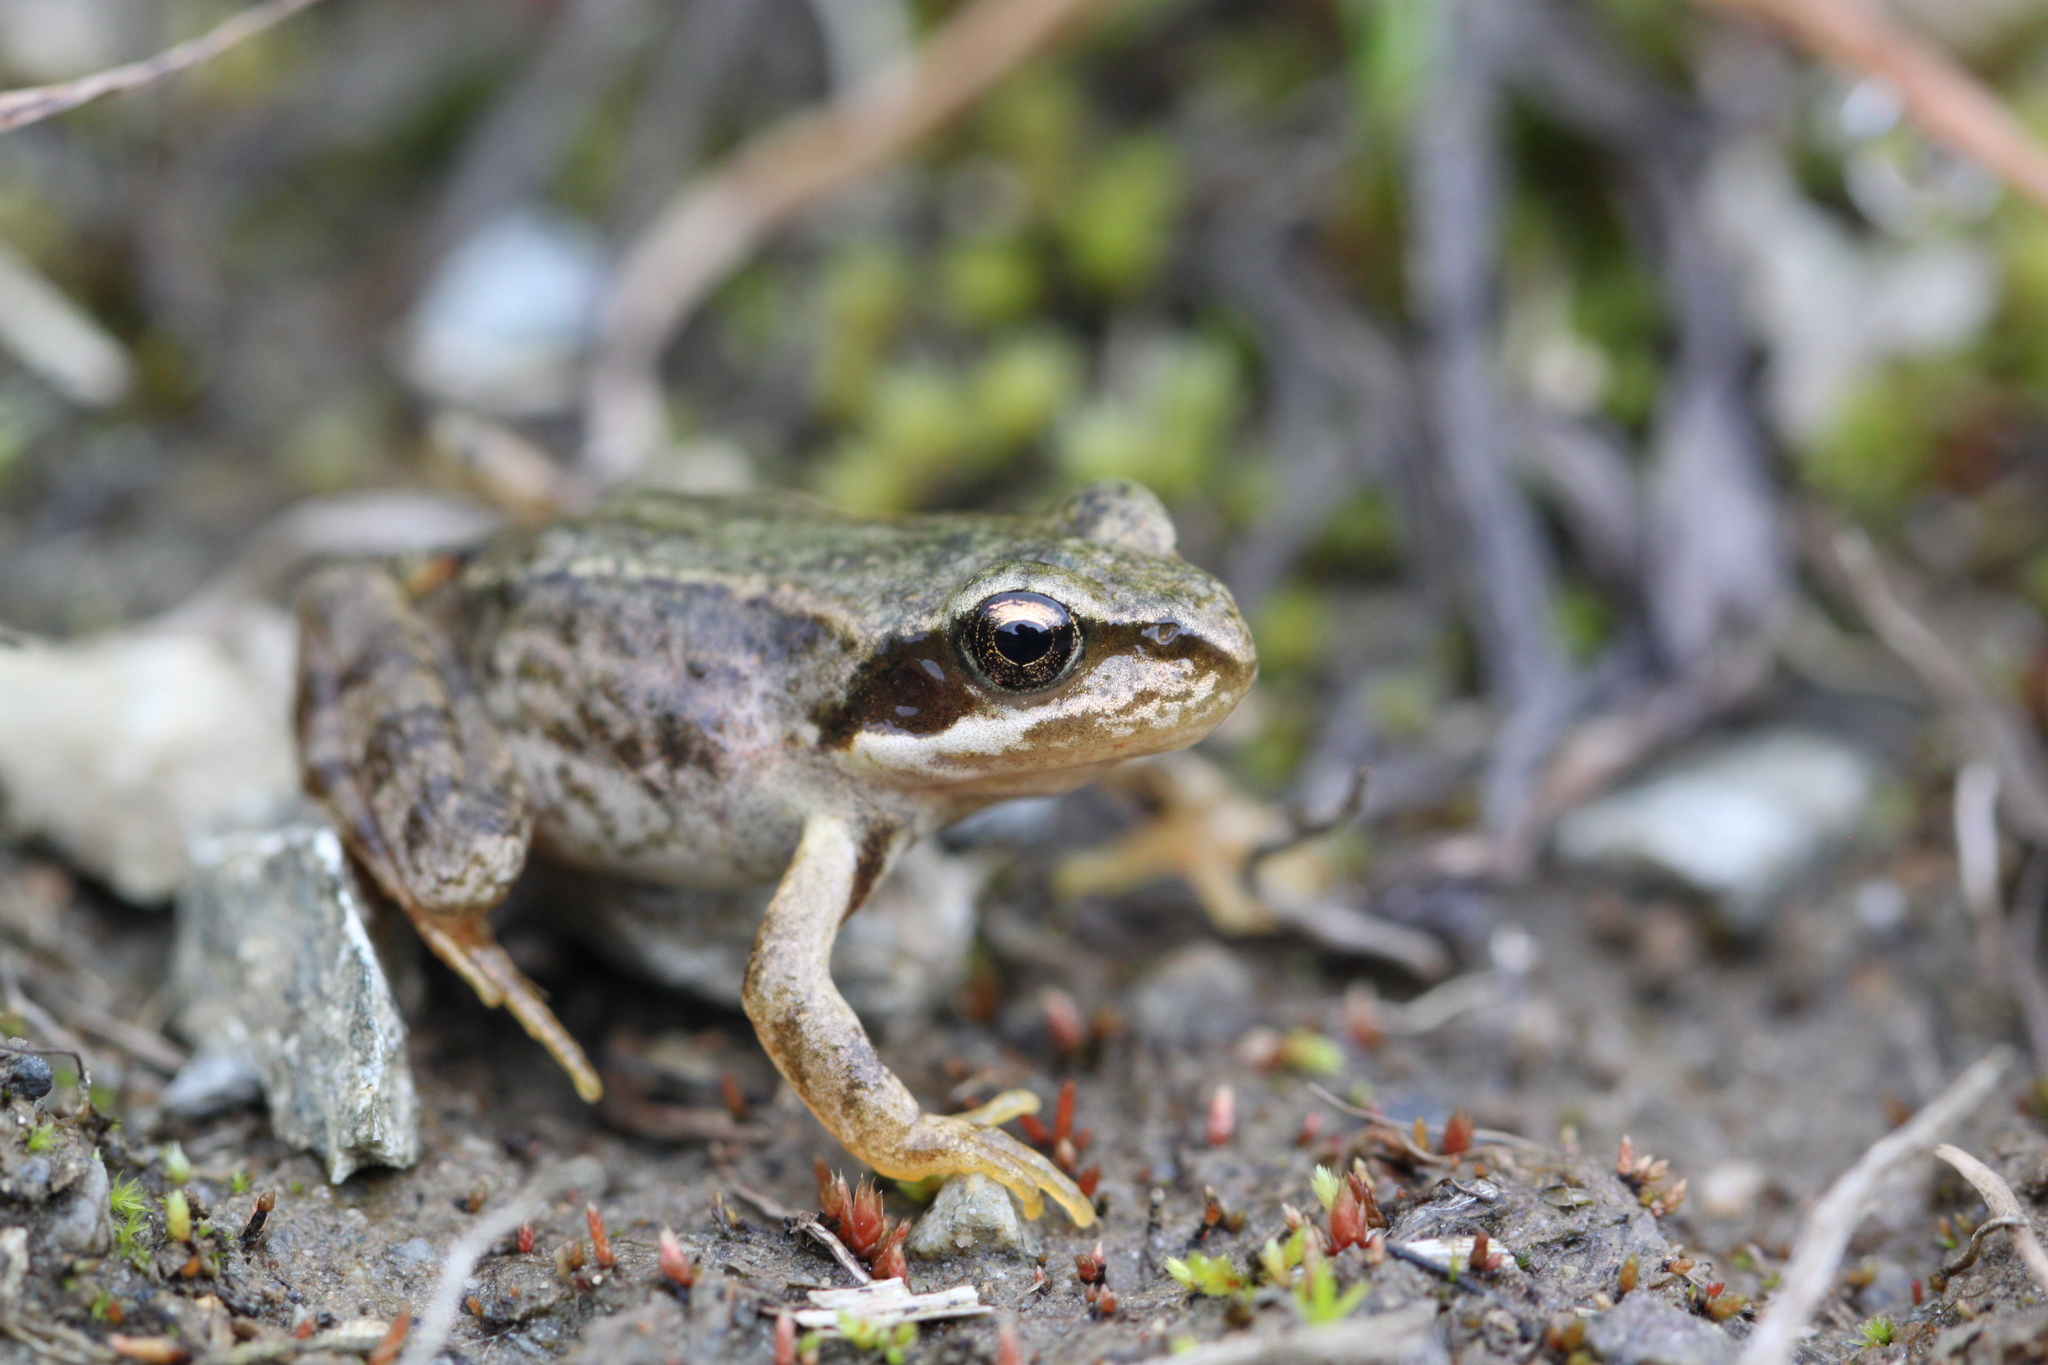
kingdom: Animalia
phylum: Chordata
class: Amphibia
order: Anura
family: Ranidae
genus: Rana
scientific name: Rana temporaria
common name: Common frog
